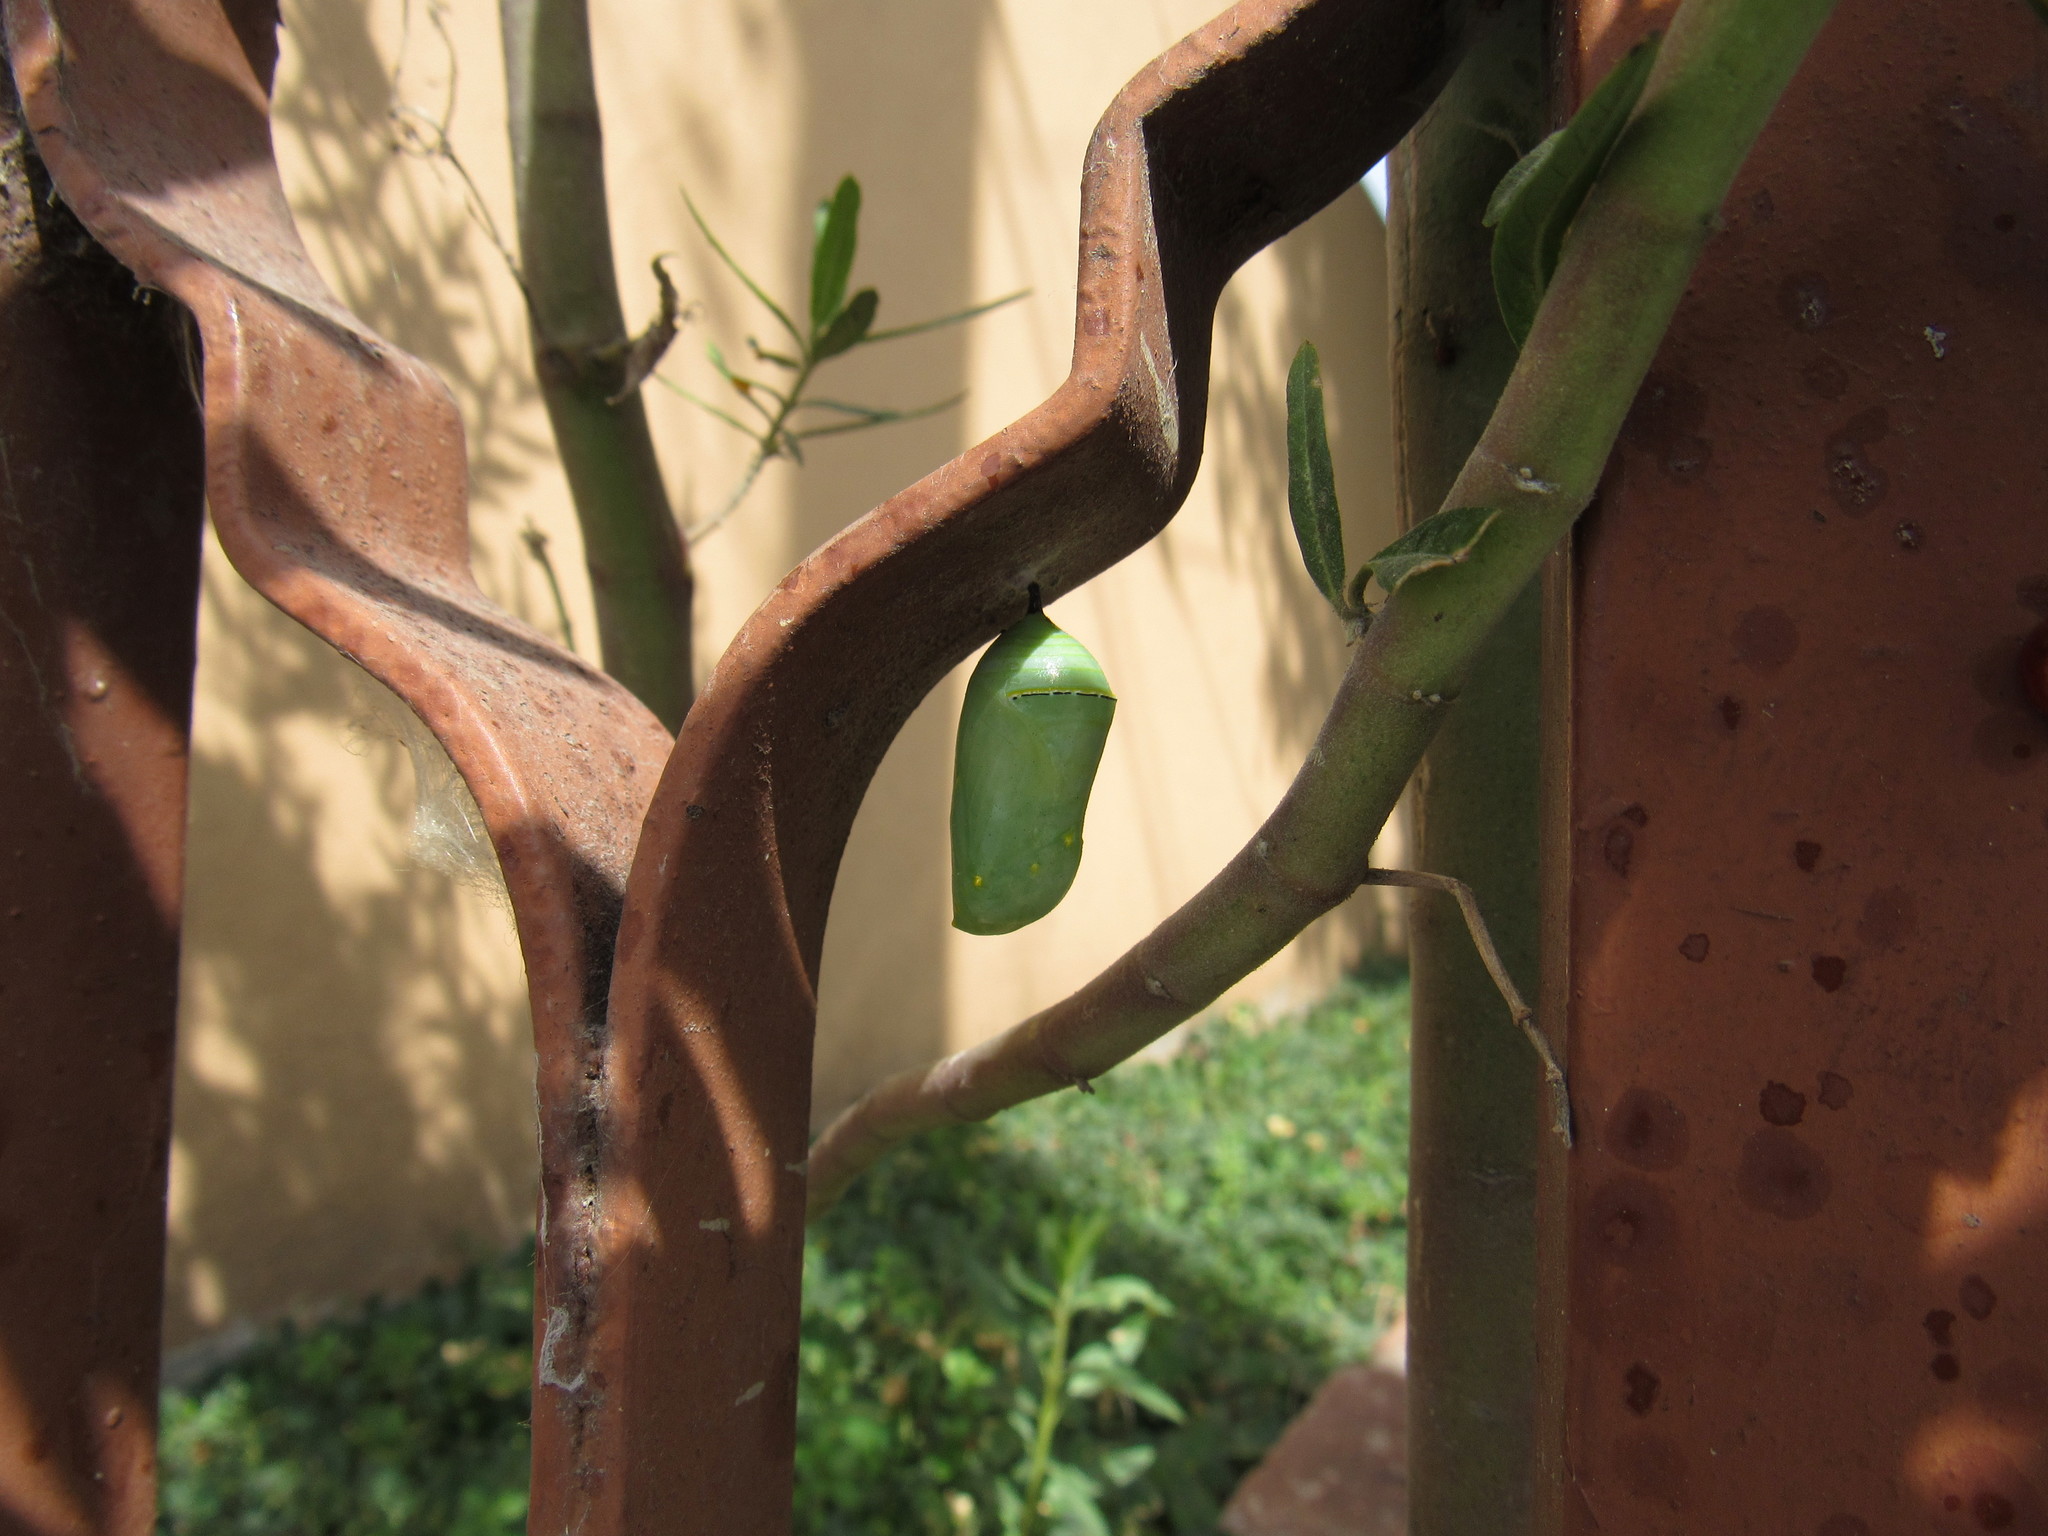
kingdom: Animalia
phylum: Arthropoda
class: Insecta
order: Lepidoptera
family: Nymphalidae
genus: Danaus
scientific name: Danaus plexippus
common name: Monarch
